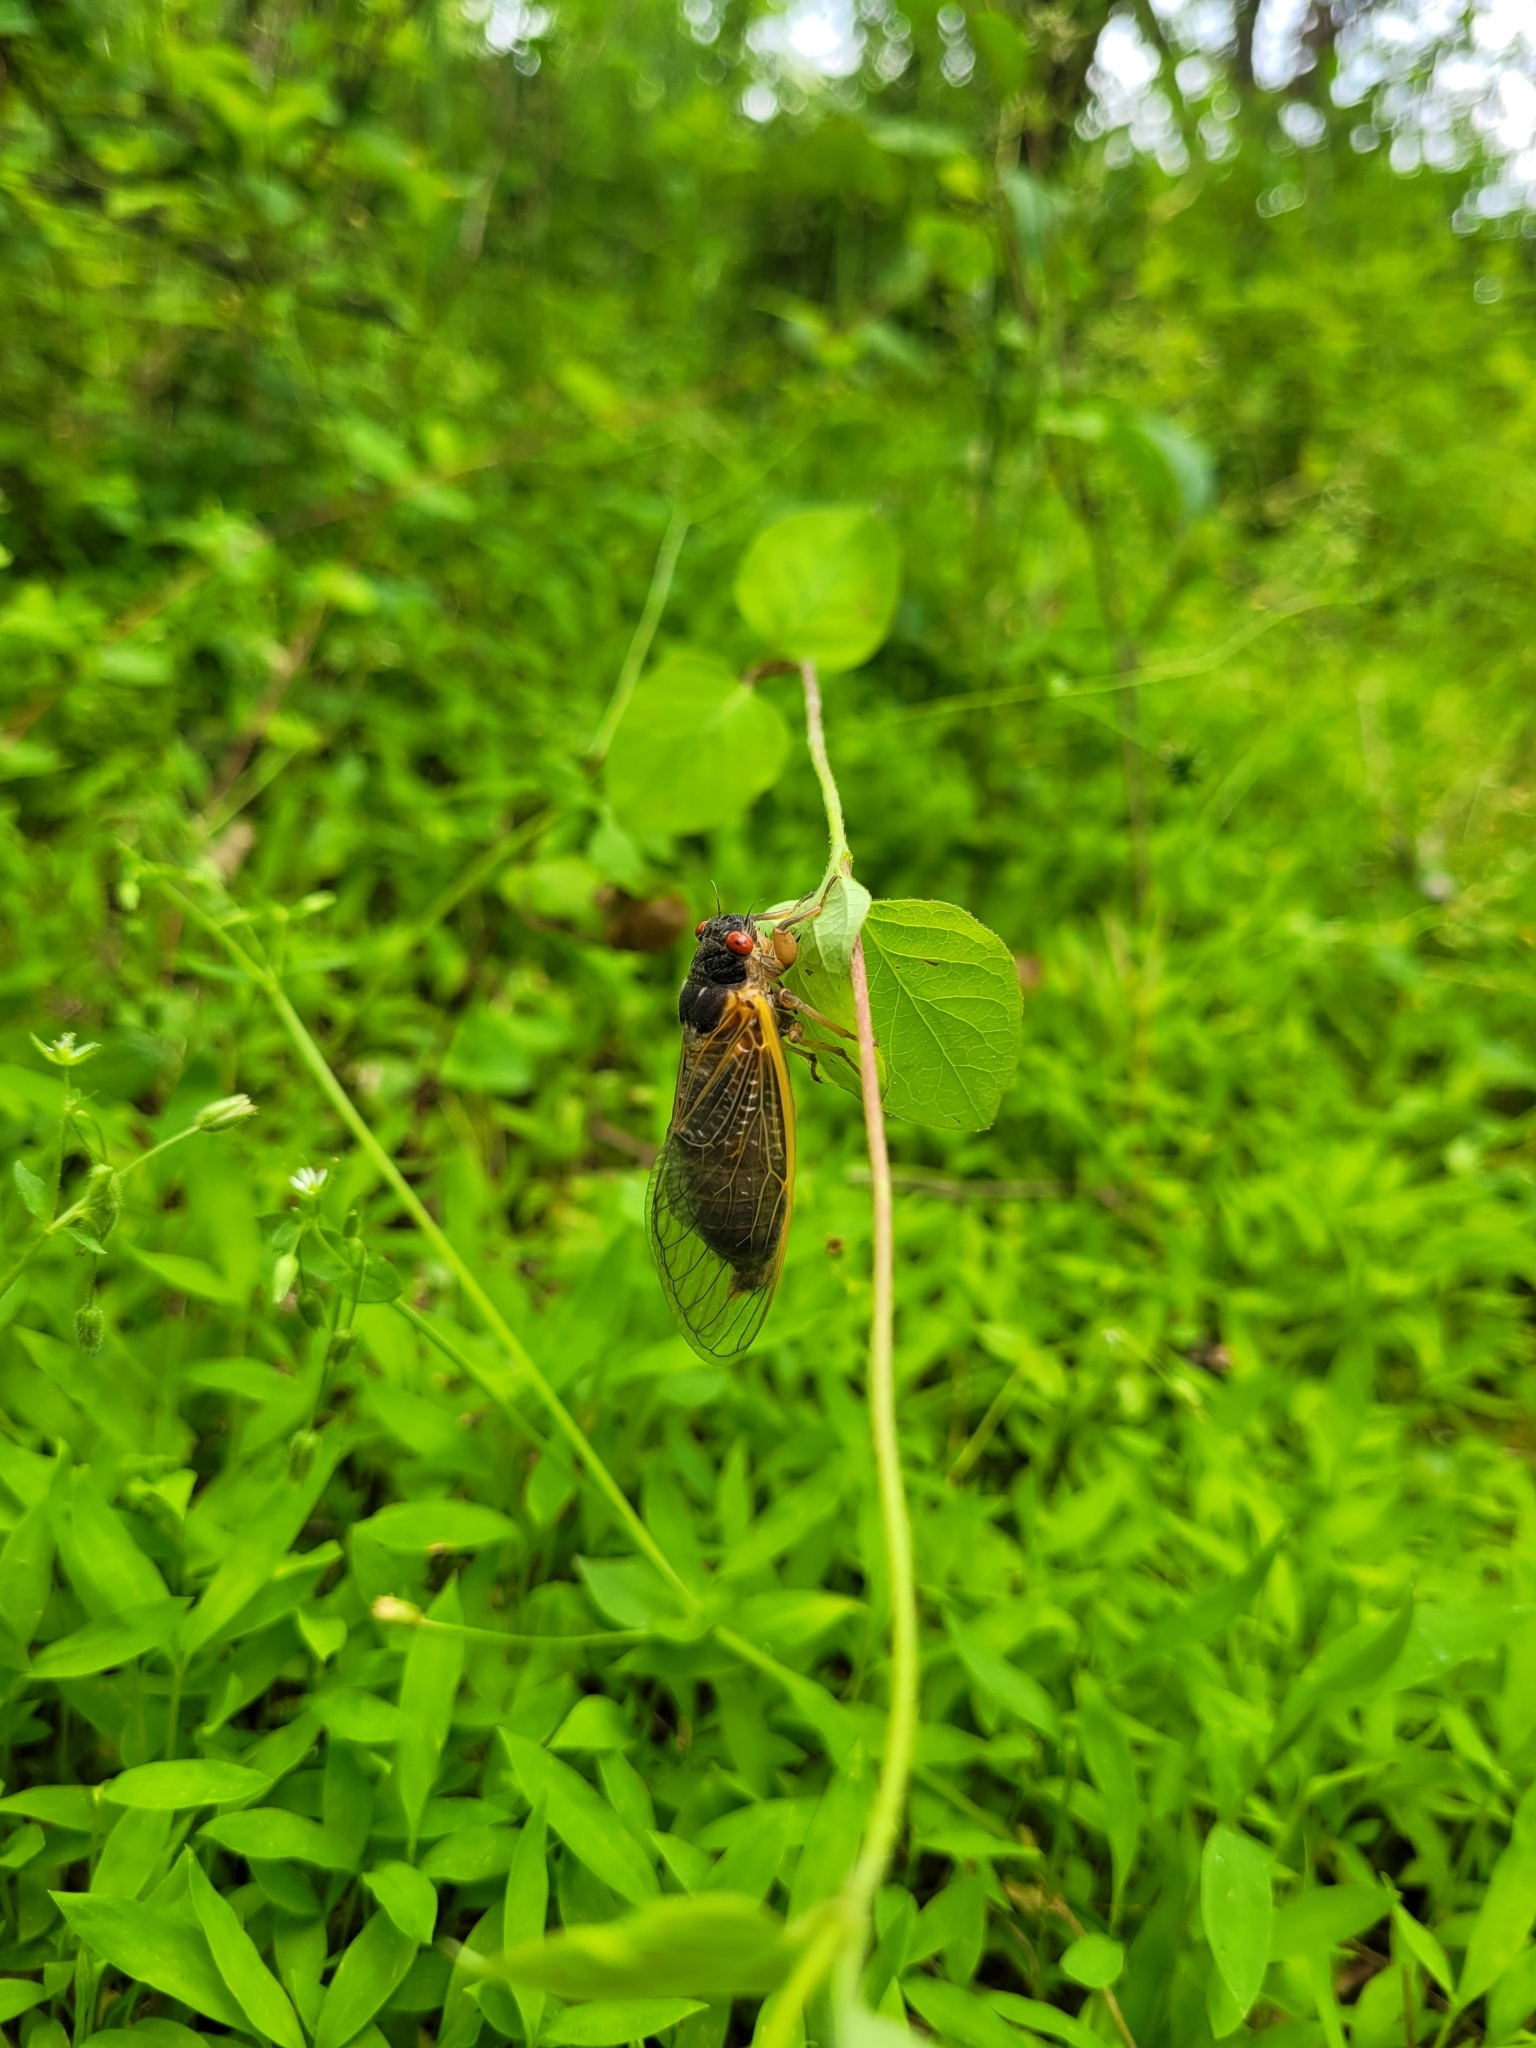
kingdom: Animalia
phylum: Arthropoda
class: Insecta
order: Hemiptera
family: Cicadidae
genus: Magicicada
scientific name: Magicicada septendecim
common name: Periodical cicada
